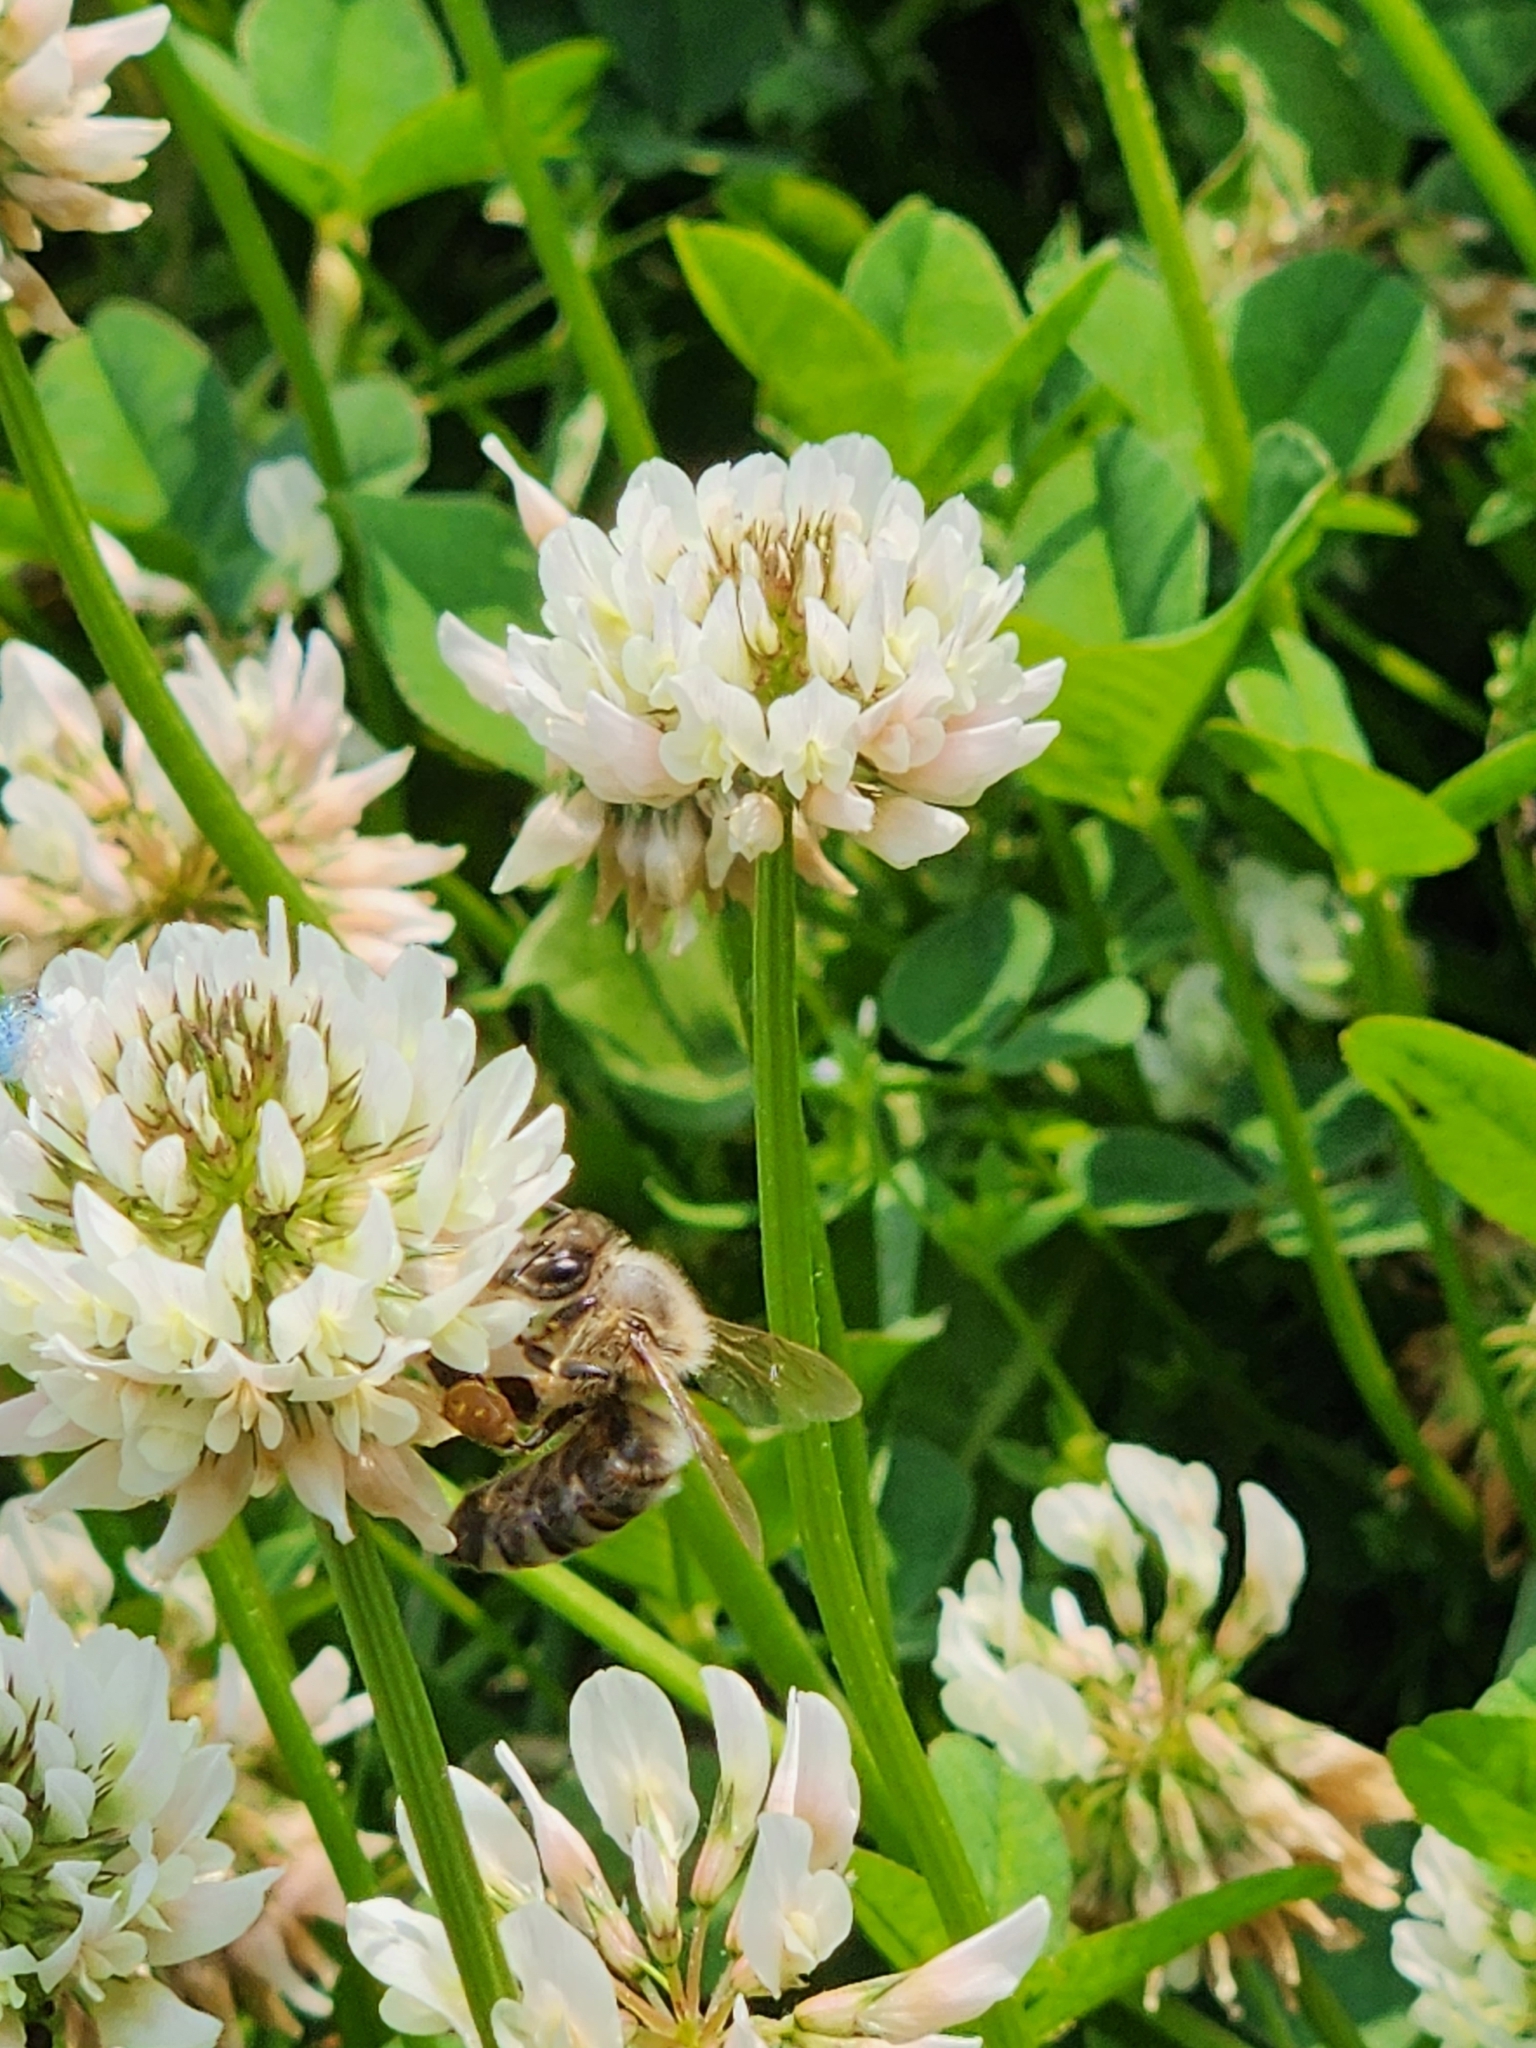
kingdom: Animalia
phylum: Arthropoda
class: Insecta
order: Hymenoptera
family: Apidae
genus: Apis
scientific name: Apis mellifera
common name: Honey bee
